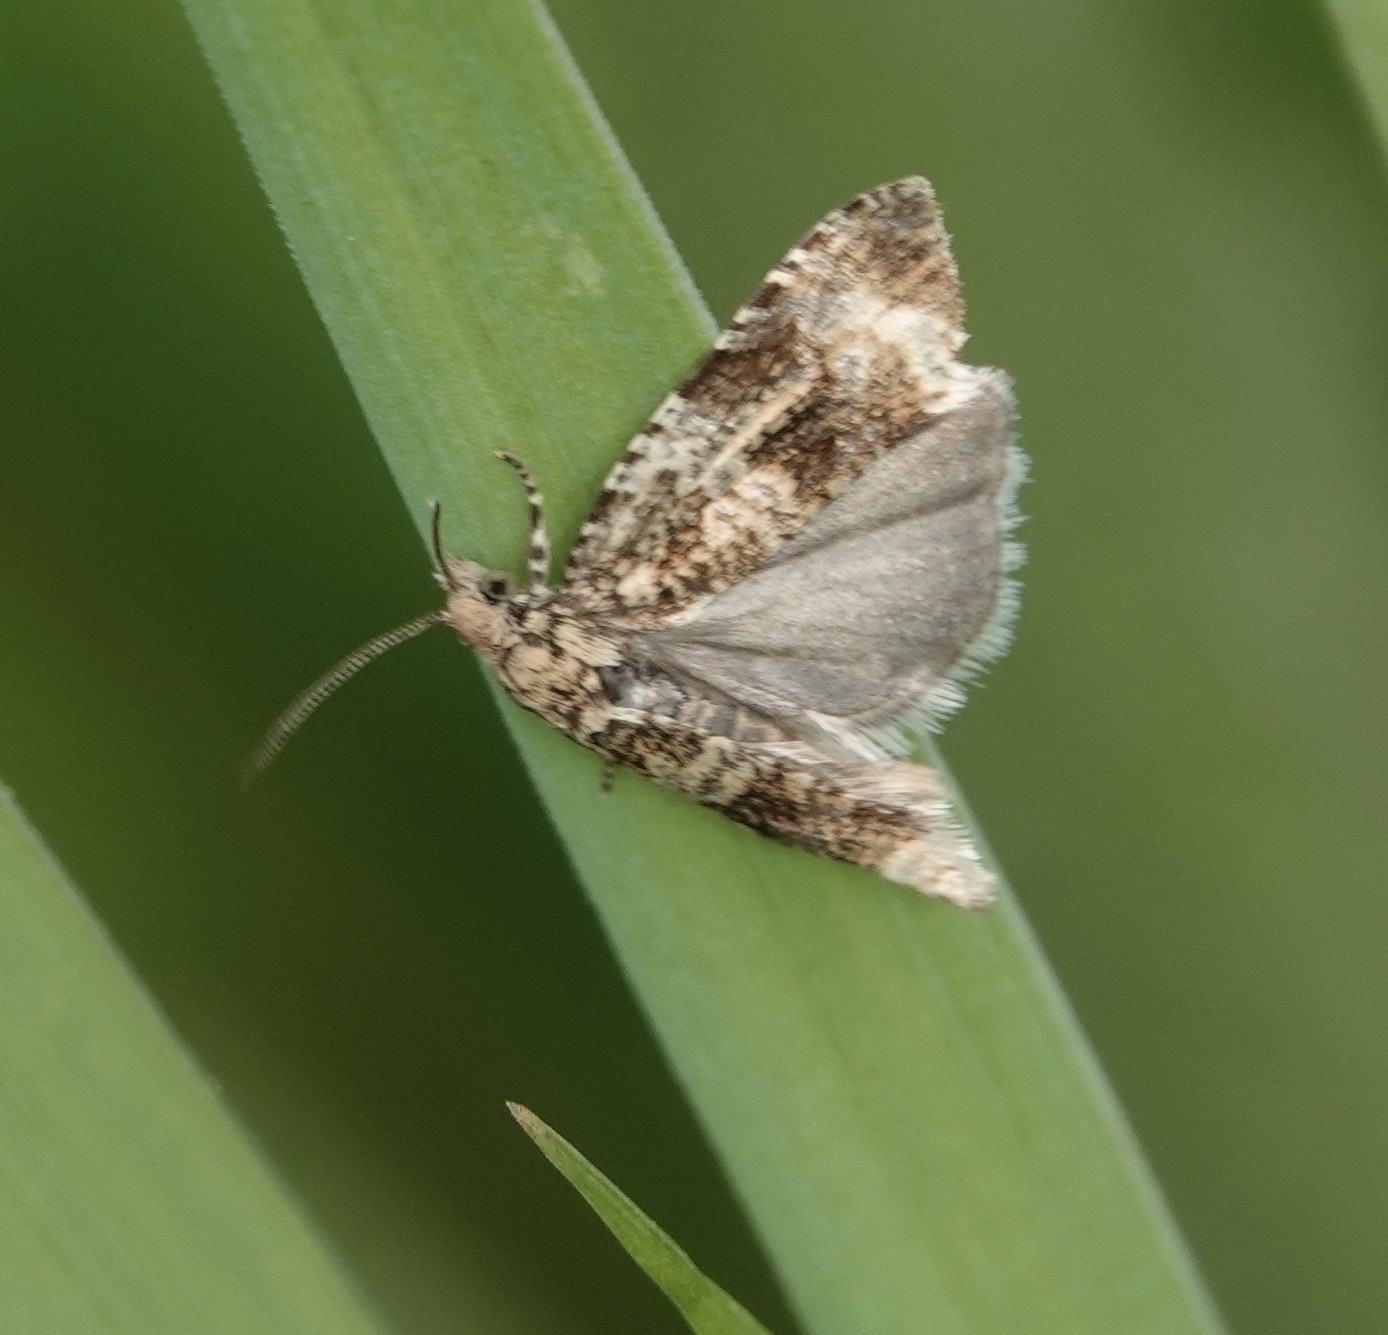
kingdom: Animalia
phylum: Arthropoda
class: Insecta
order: Lepidoptera
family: Tortricidae
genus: Syricoris
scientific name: Syricoris lacunana
